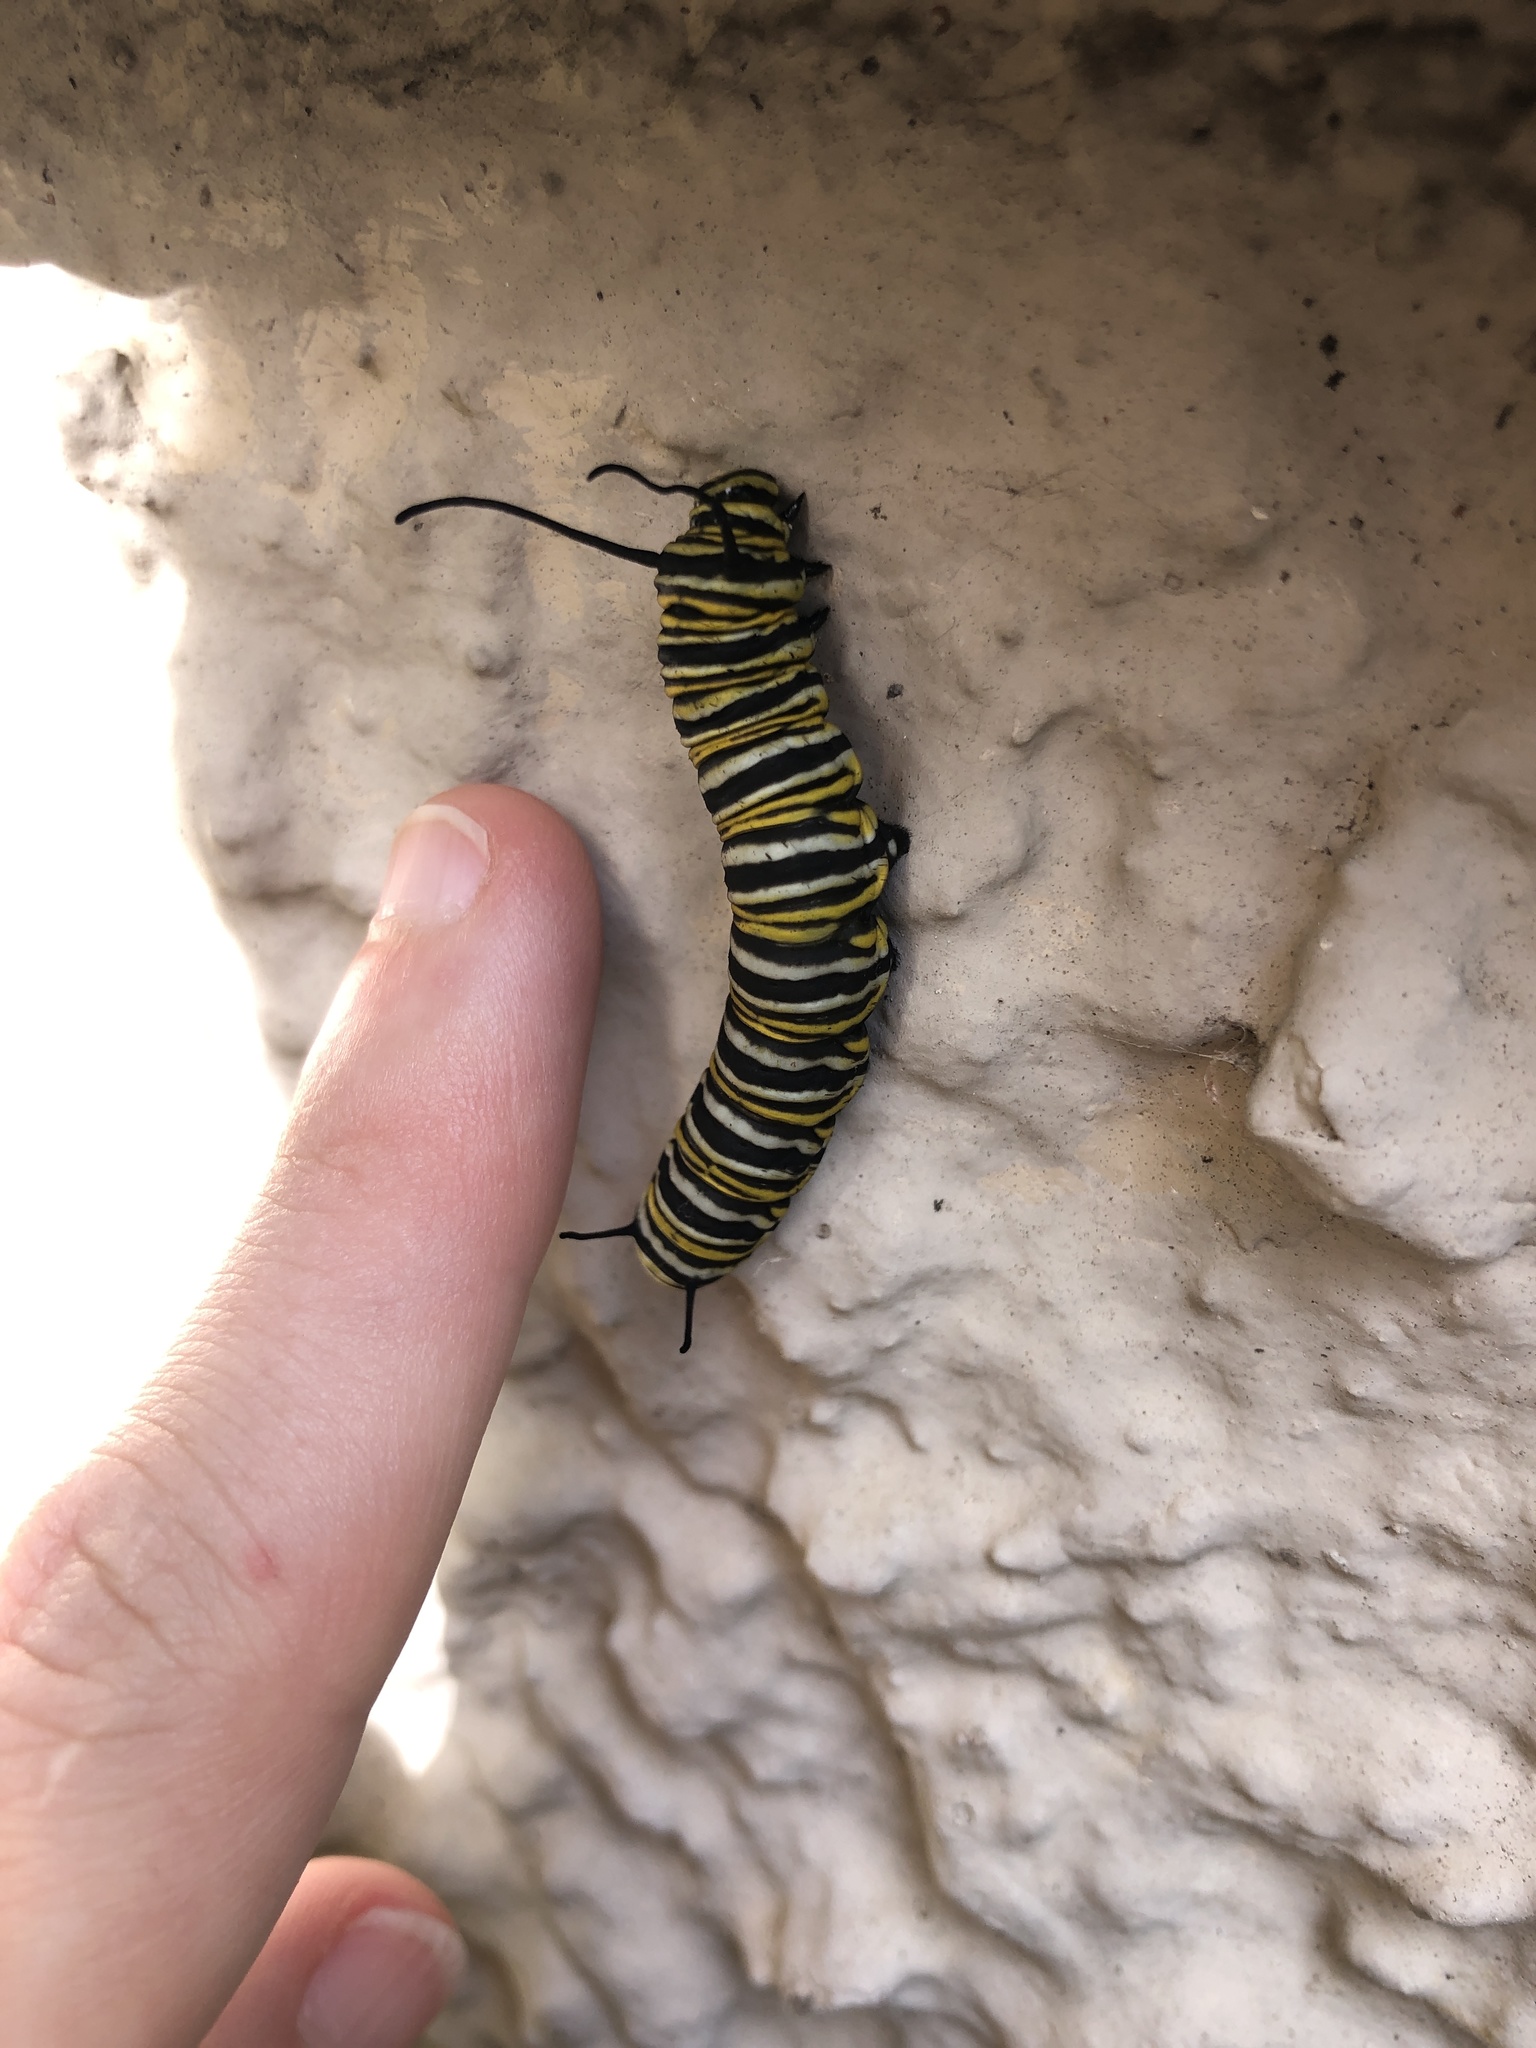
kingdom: Animalia
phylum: Arthropoda
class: Insecta
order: Lepidoptera
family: Nymphalidae
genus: Danaus
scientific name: Danaus plexippus
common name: Monarch
